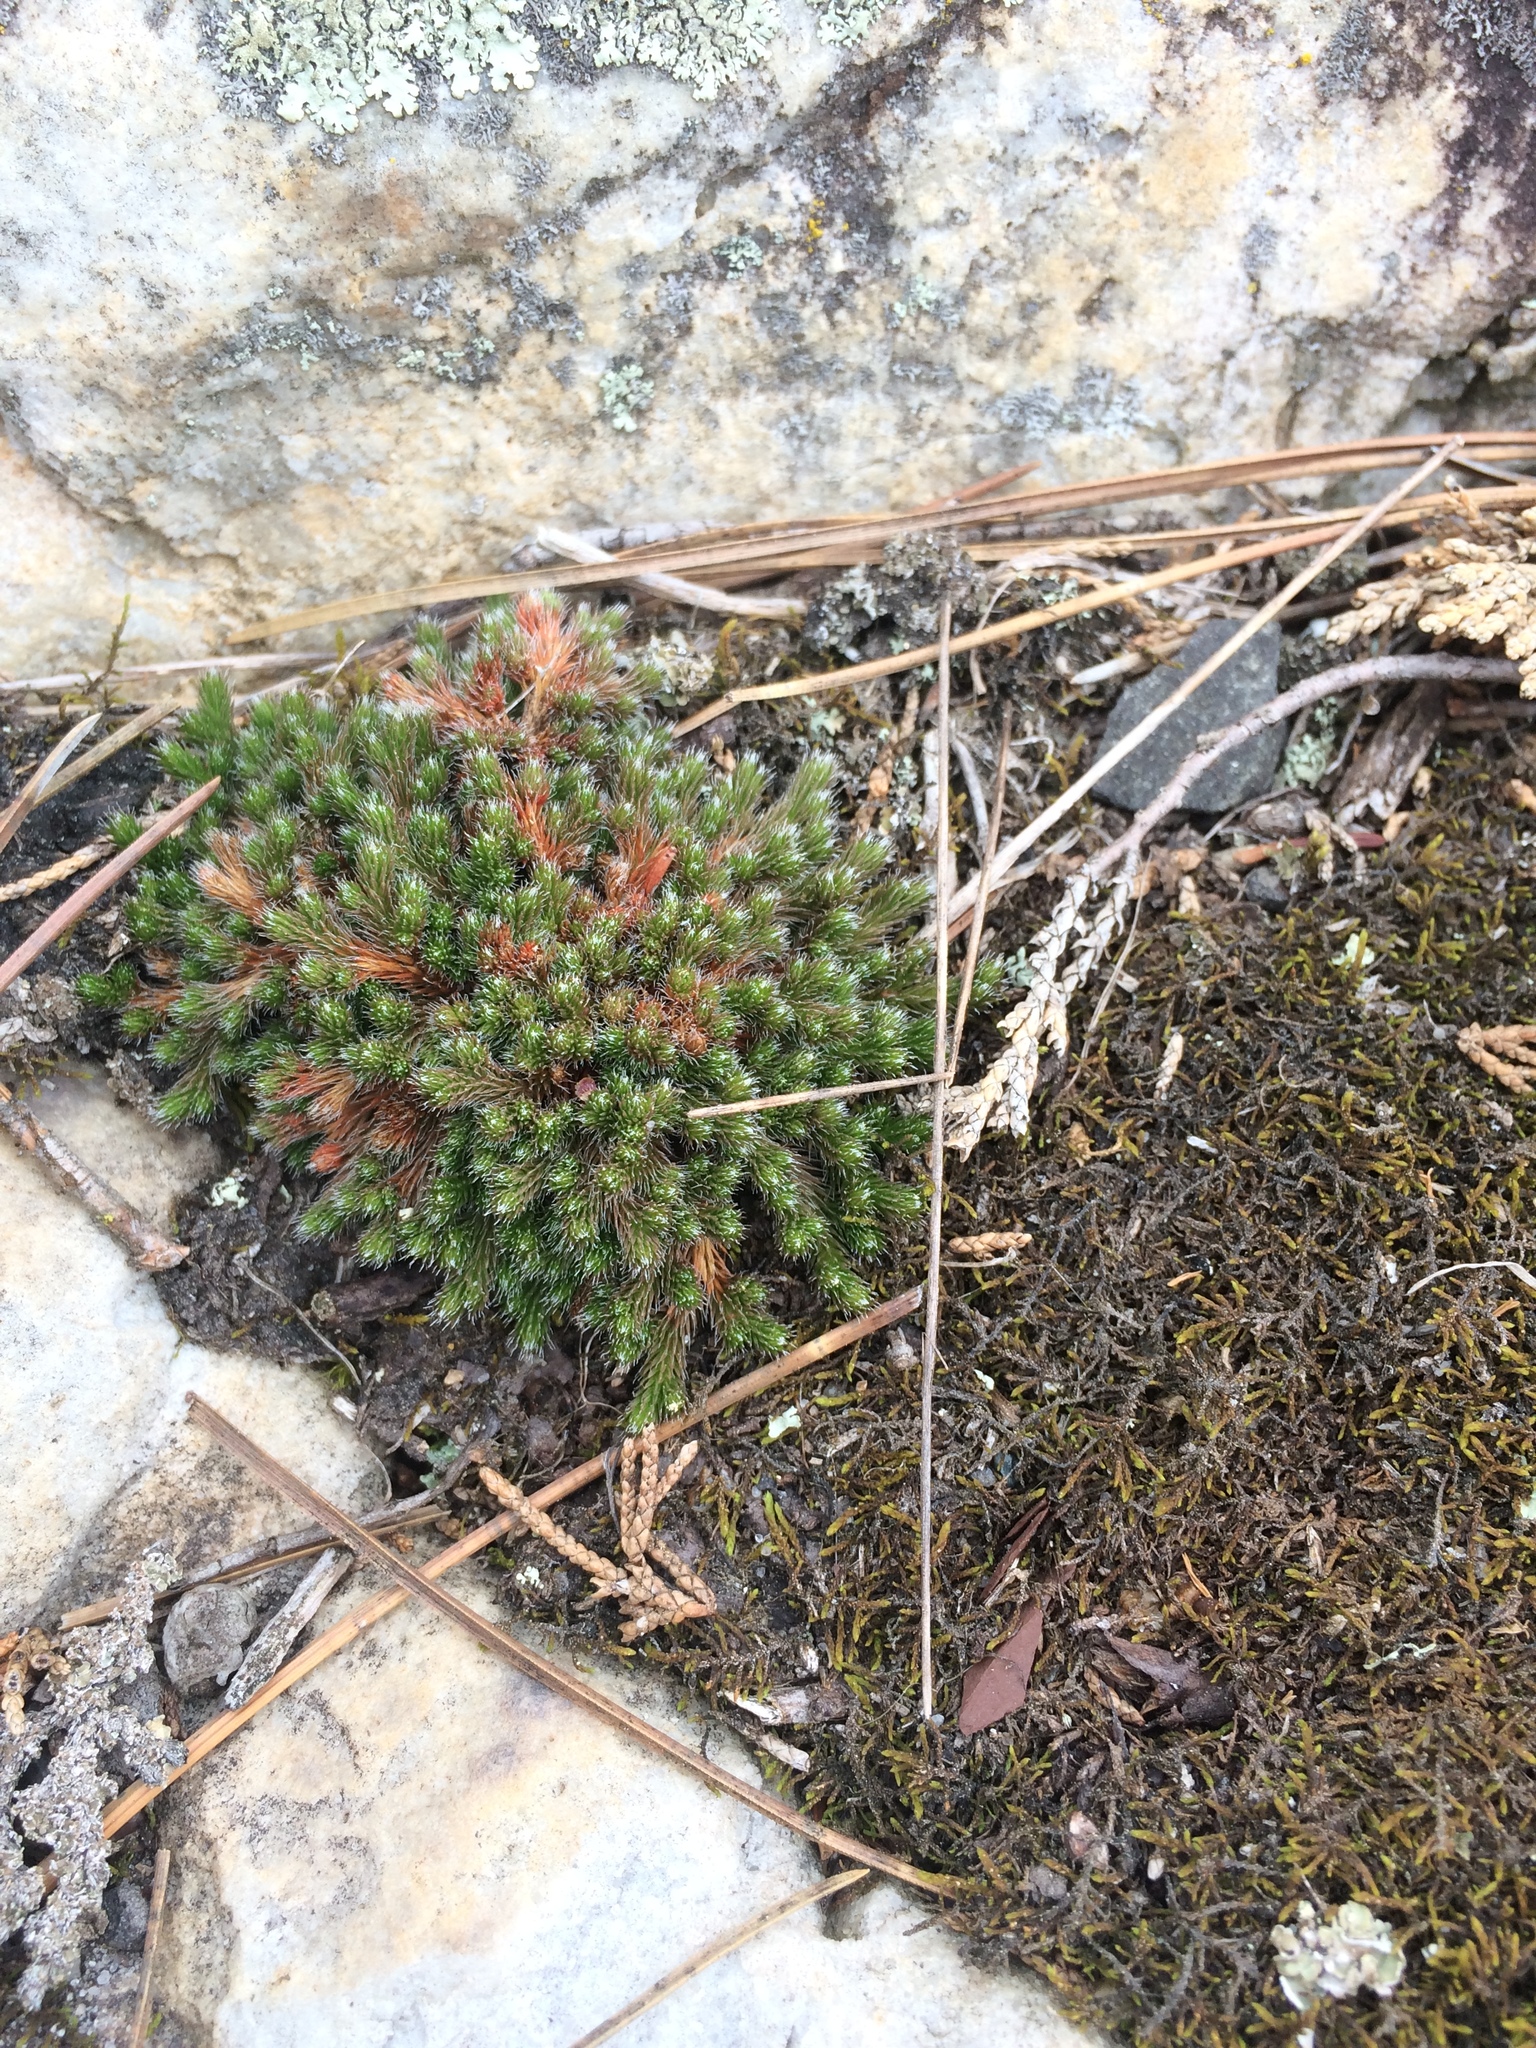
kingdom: Plantae
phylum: Tracheophyta
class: Lycopodiopsida
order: Selaginellales
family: Selaginellaceae
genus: Selaginella
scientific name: Selaginella rupestris
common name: Dwarf spikemoss
